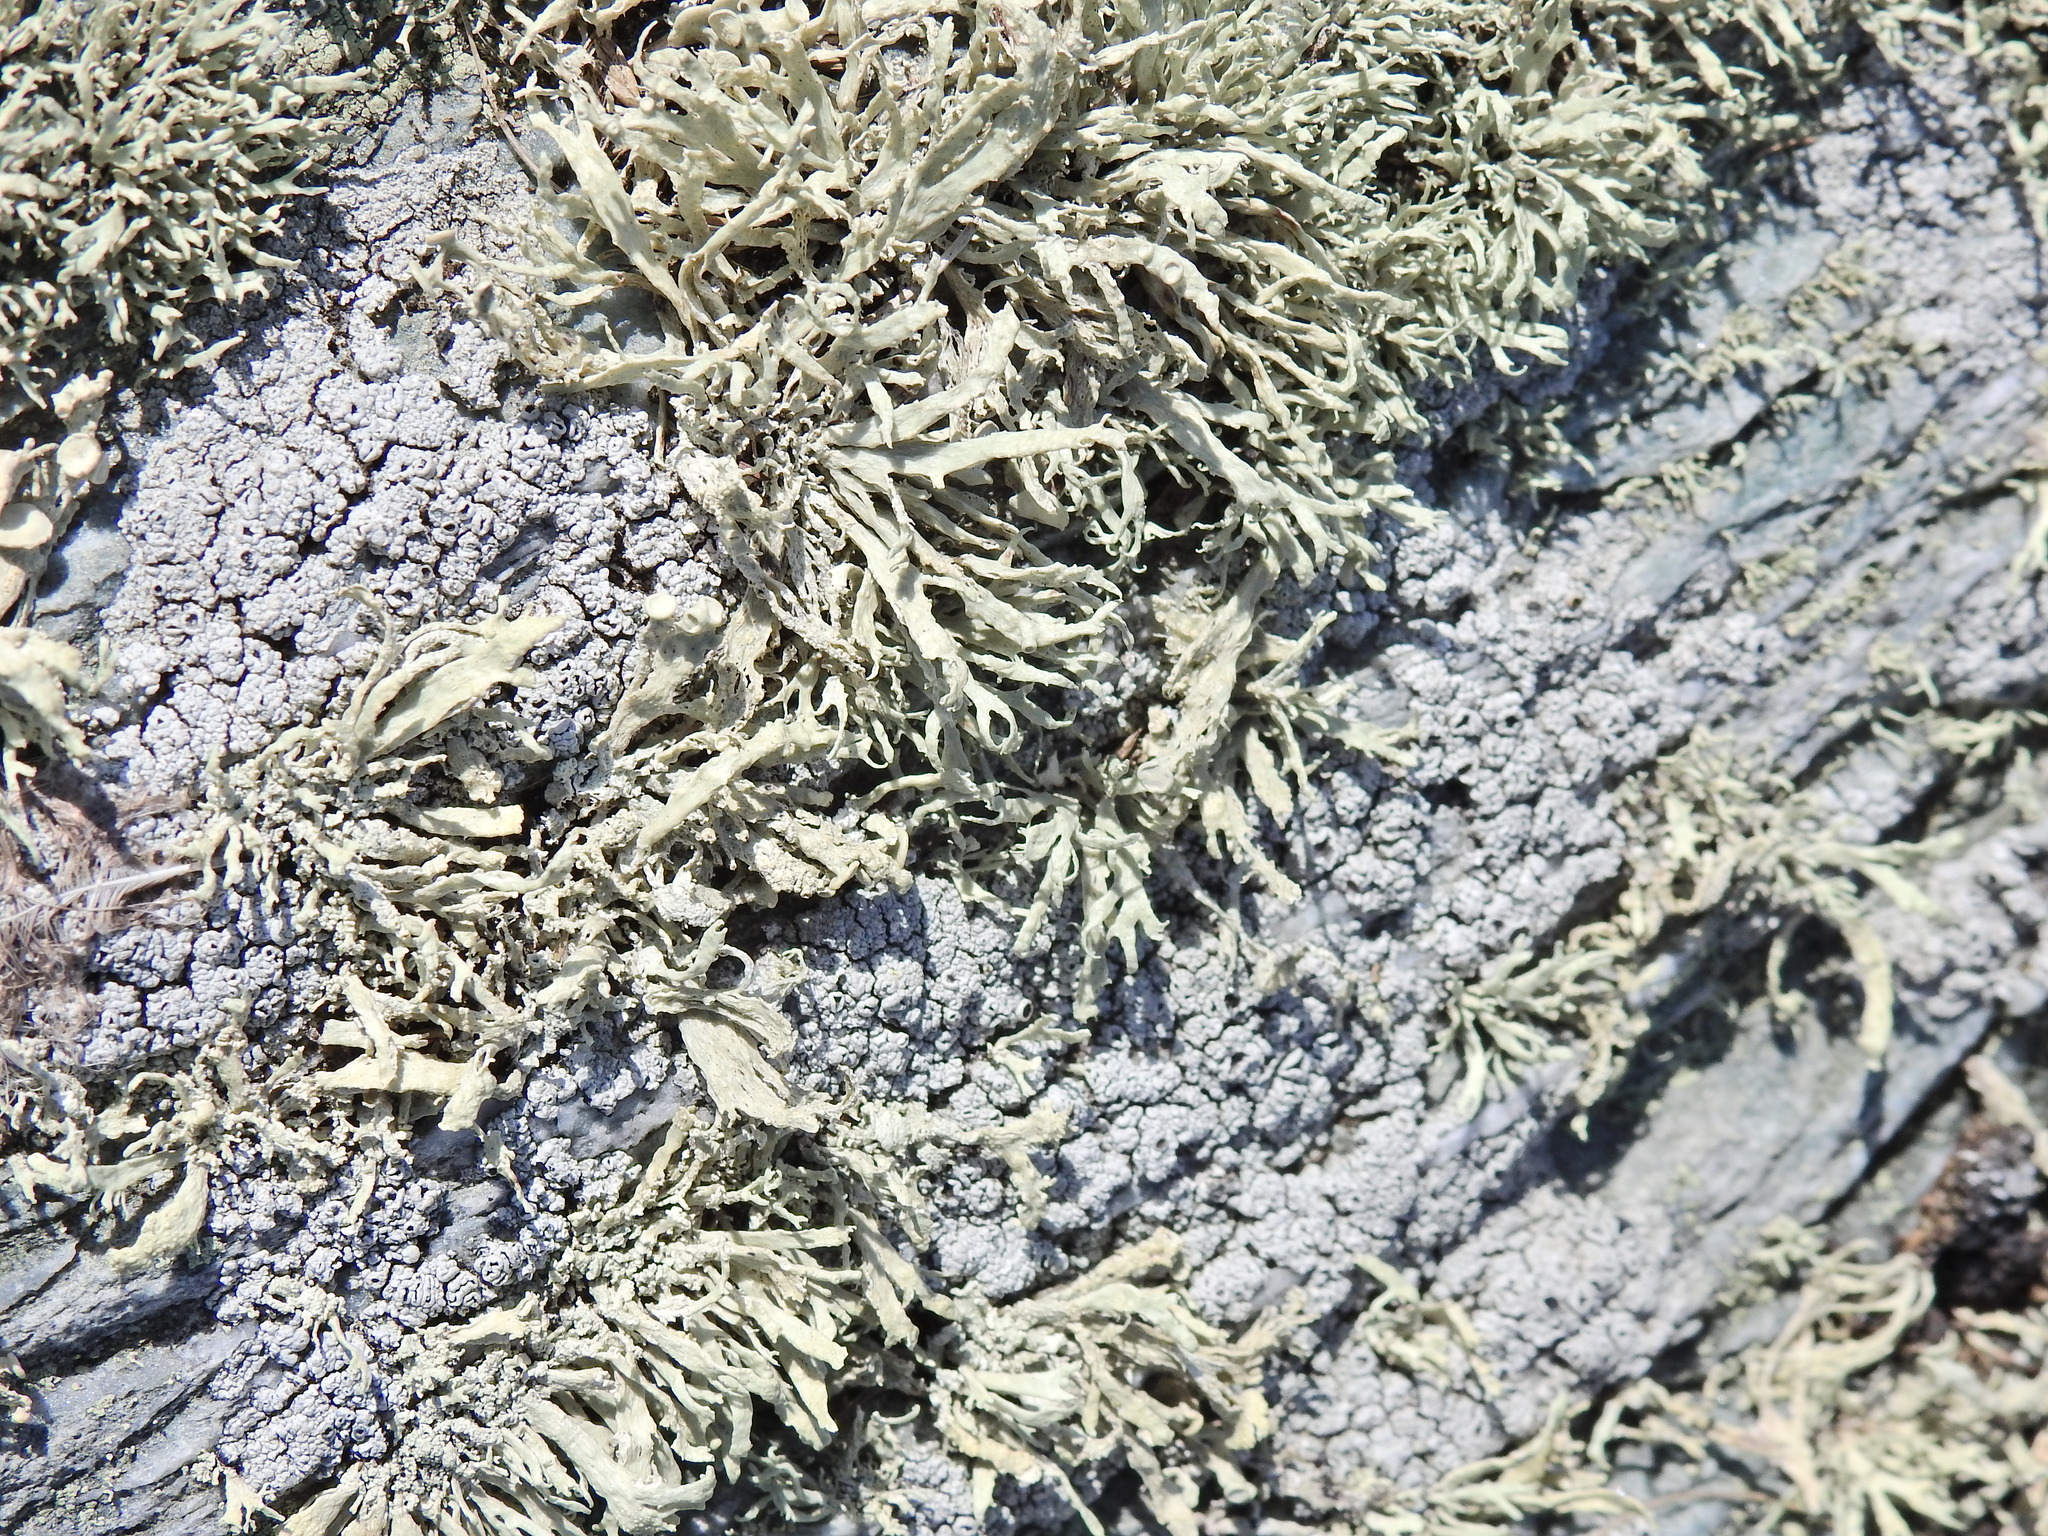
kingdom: Fungi
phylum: Ascomycota
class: Lecanoromycetes
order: Lecanorales
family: Ramalinaceae
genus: Ramalina
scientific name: Ramalina siliquosa
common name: Sea ivory
